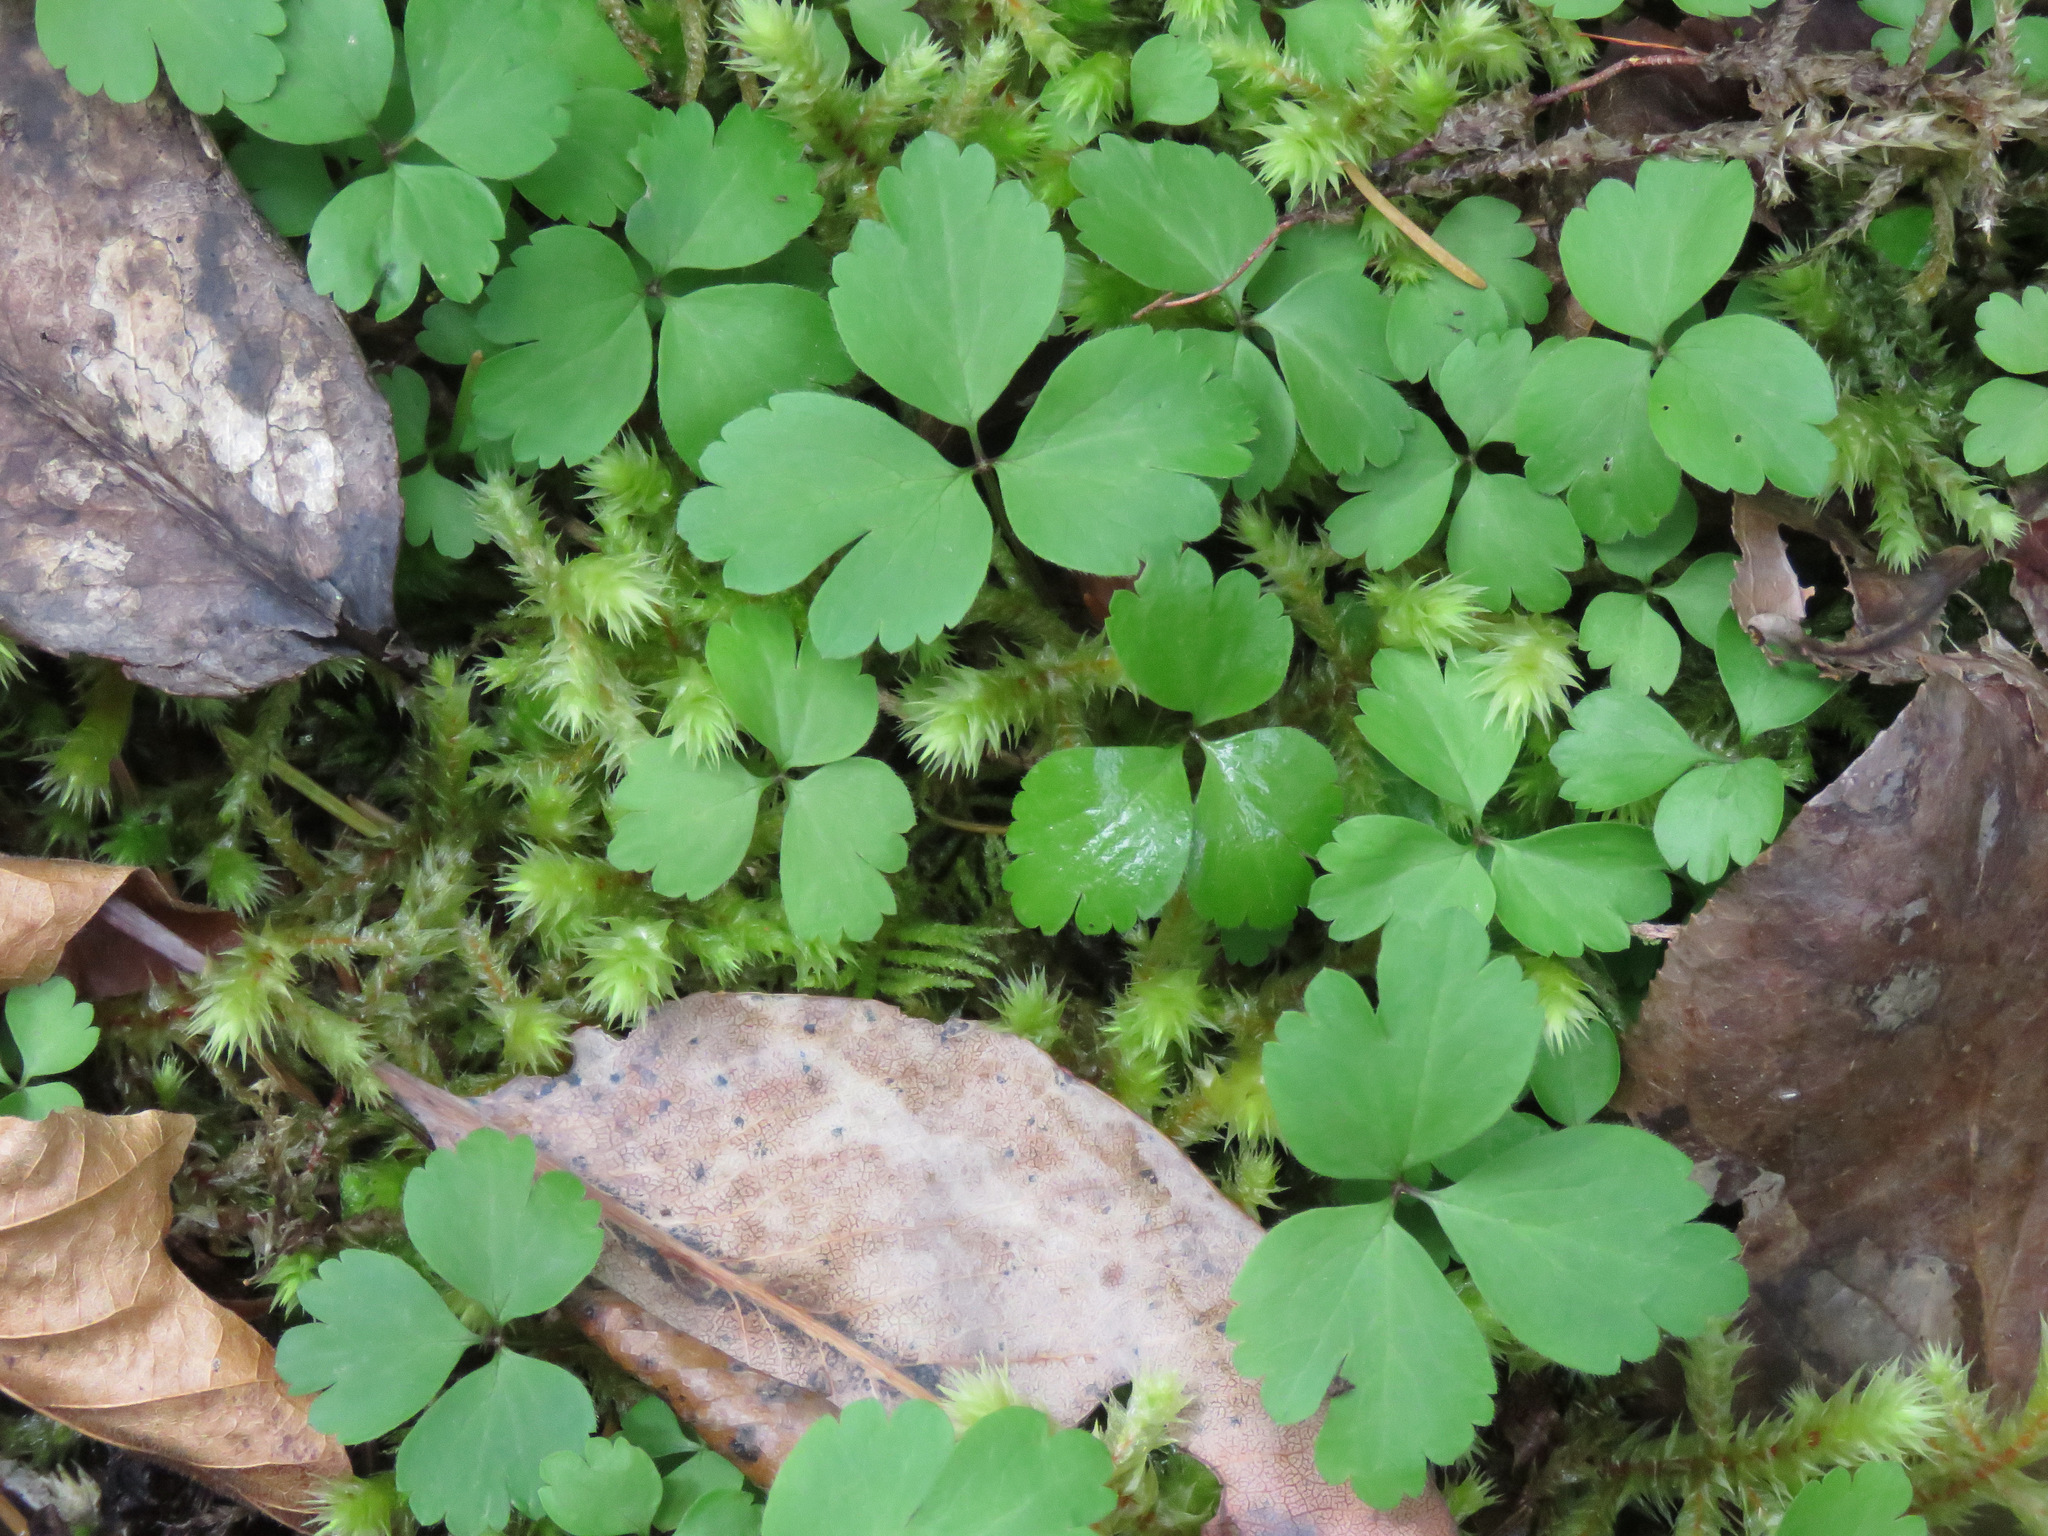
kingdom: Plantae
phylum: Tracheophyta
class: Magnoliopsida
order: Ranunculales
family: Ranunculaceae
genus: Anemone
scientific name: Anemone
